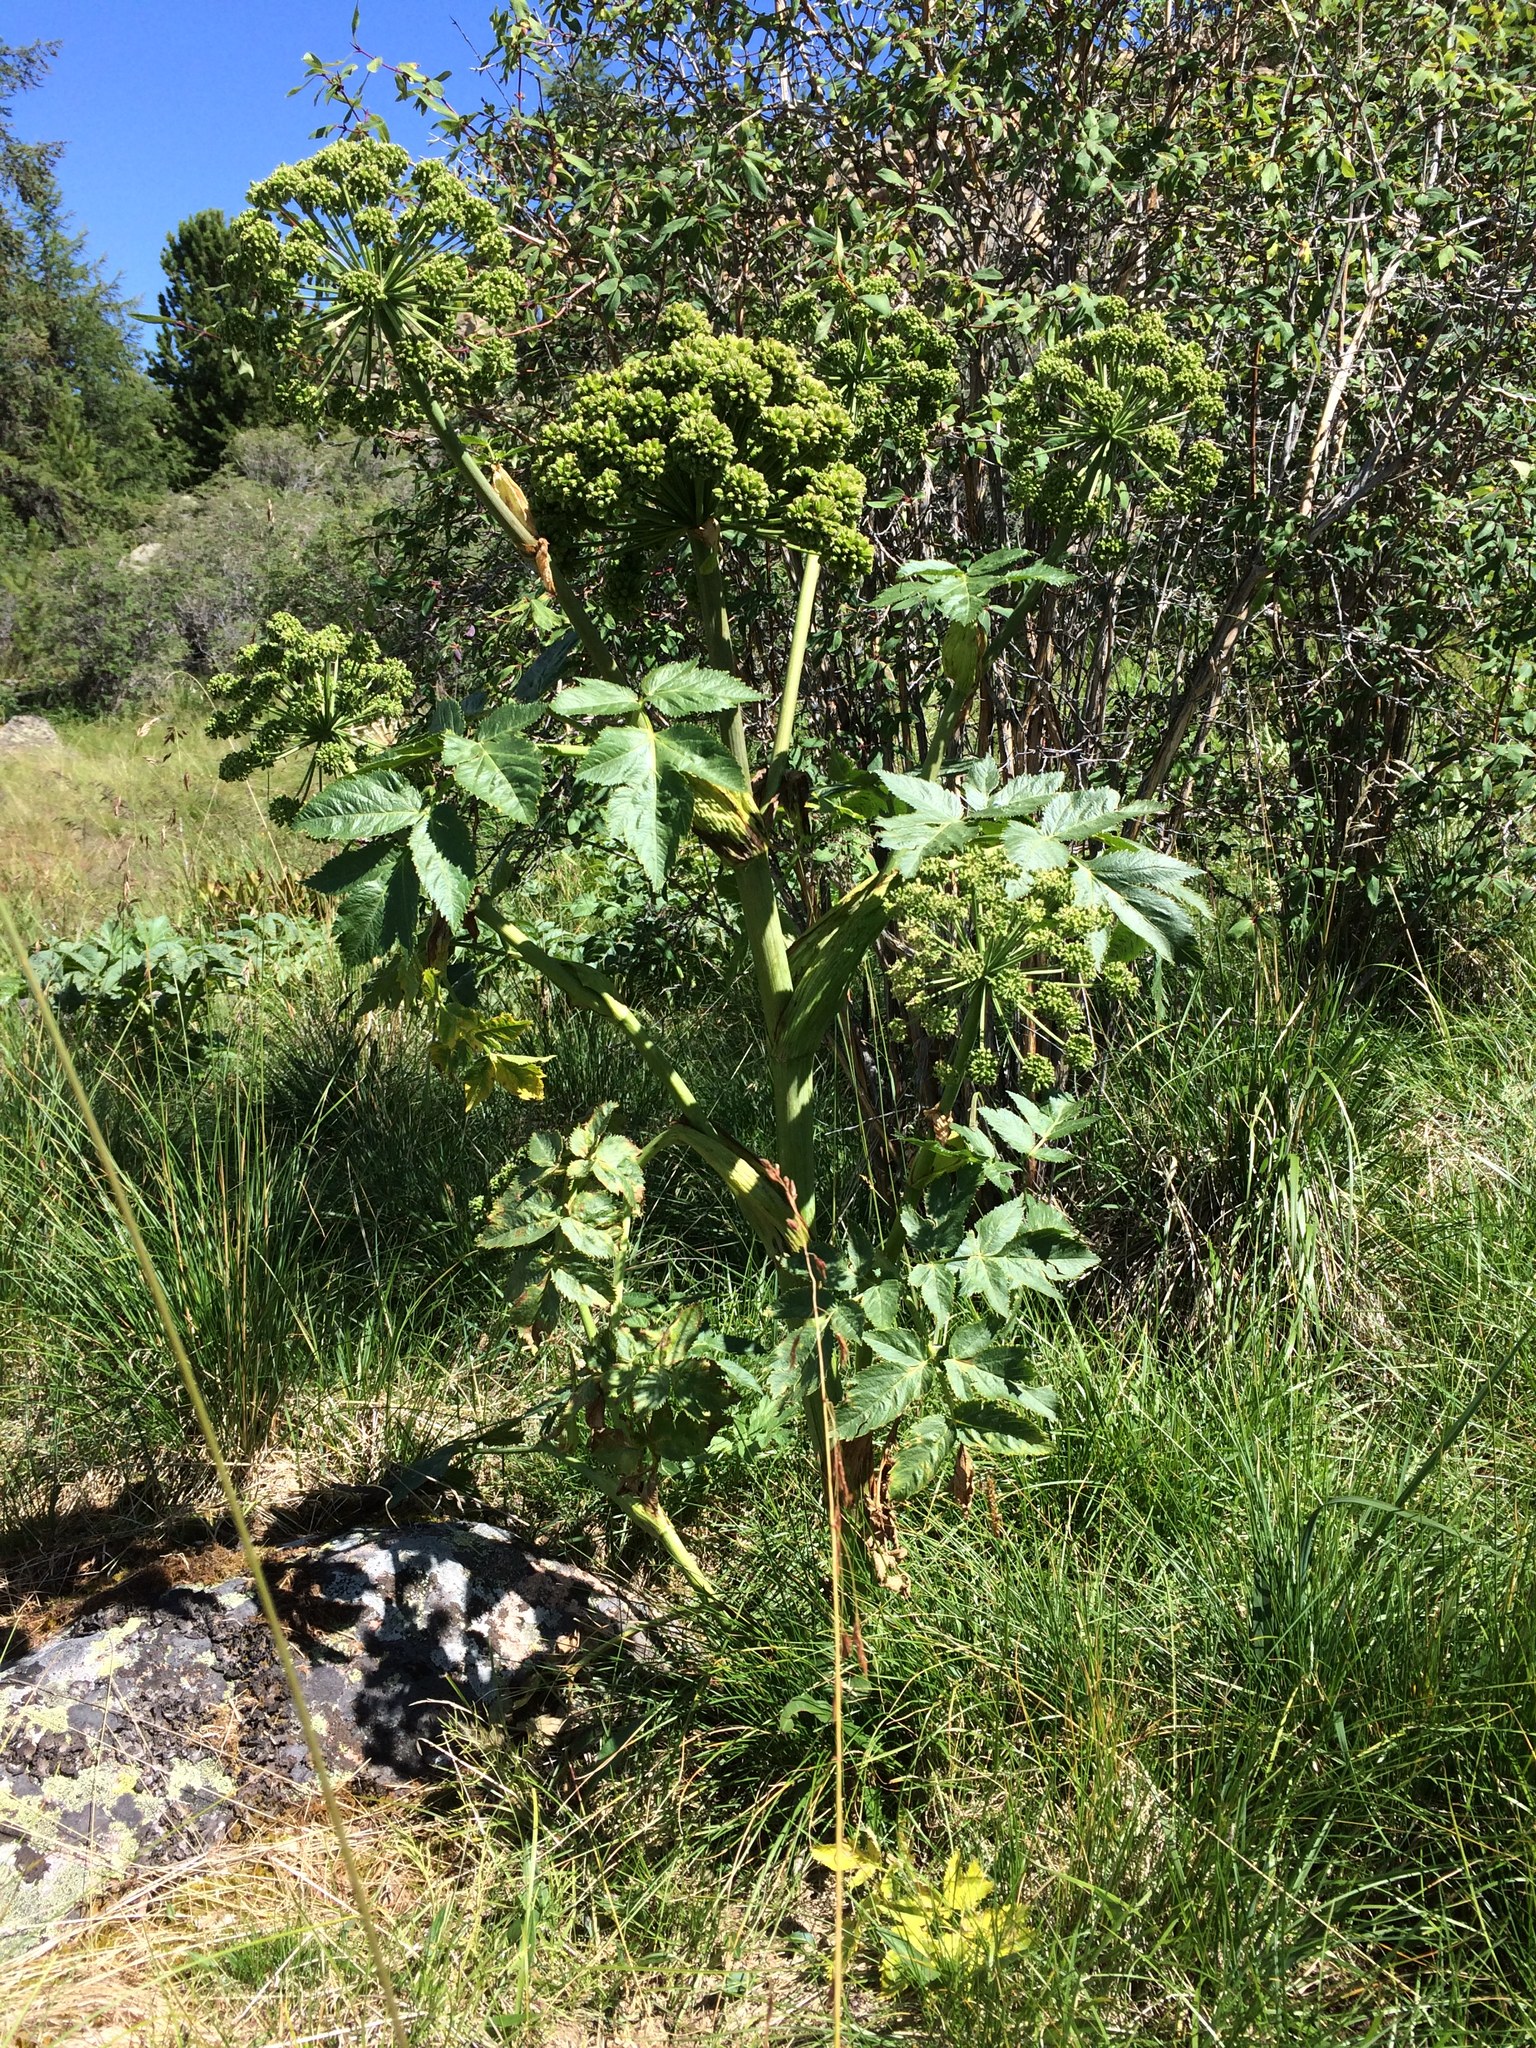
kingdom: Plantae
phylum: Tracheophyta
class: Magnoliopsida
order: Apiales
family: Apiaceae
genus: Angelica
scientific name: Angelica decurrens
